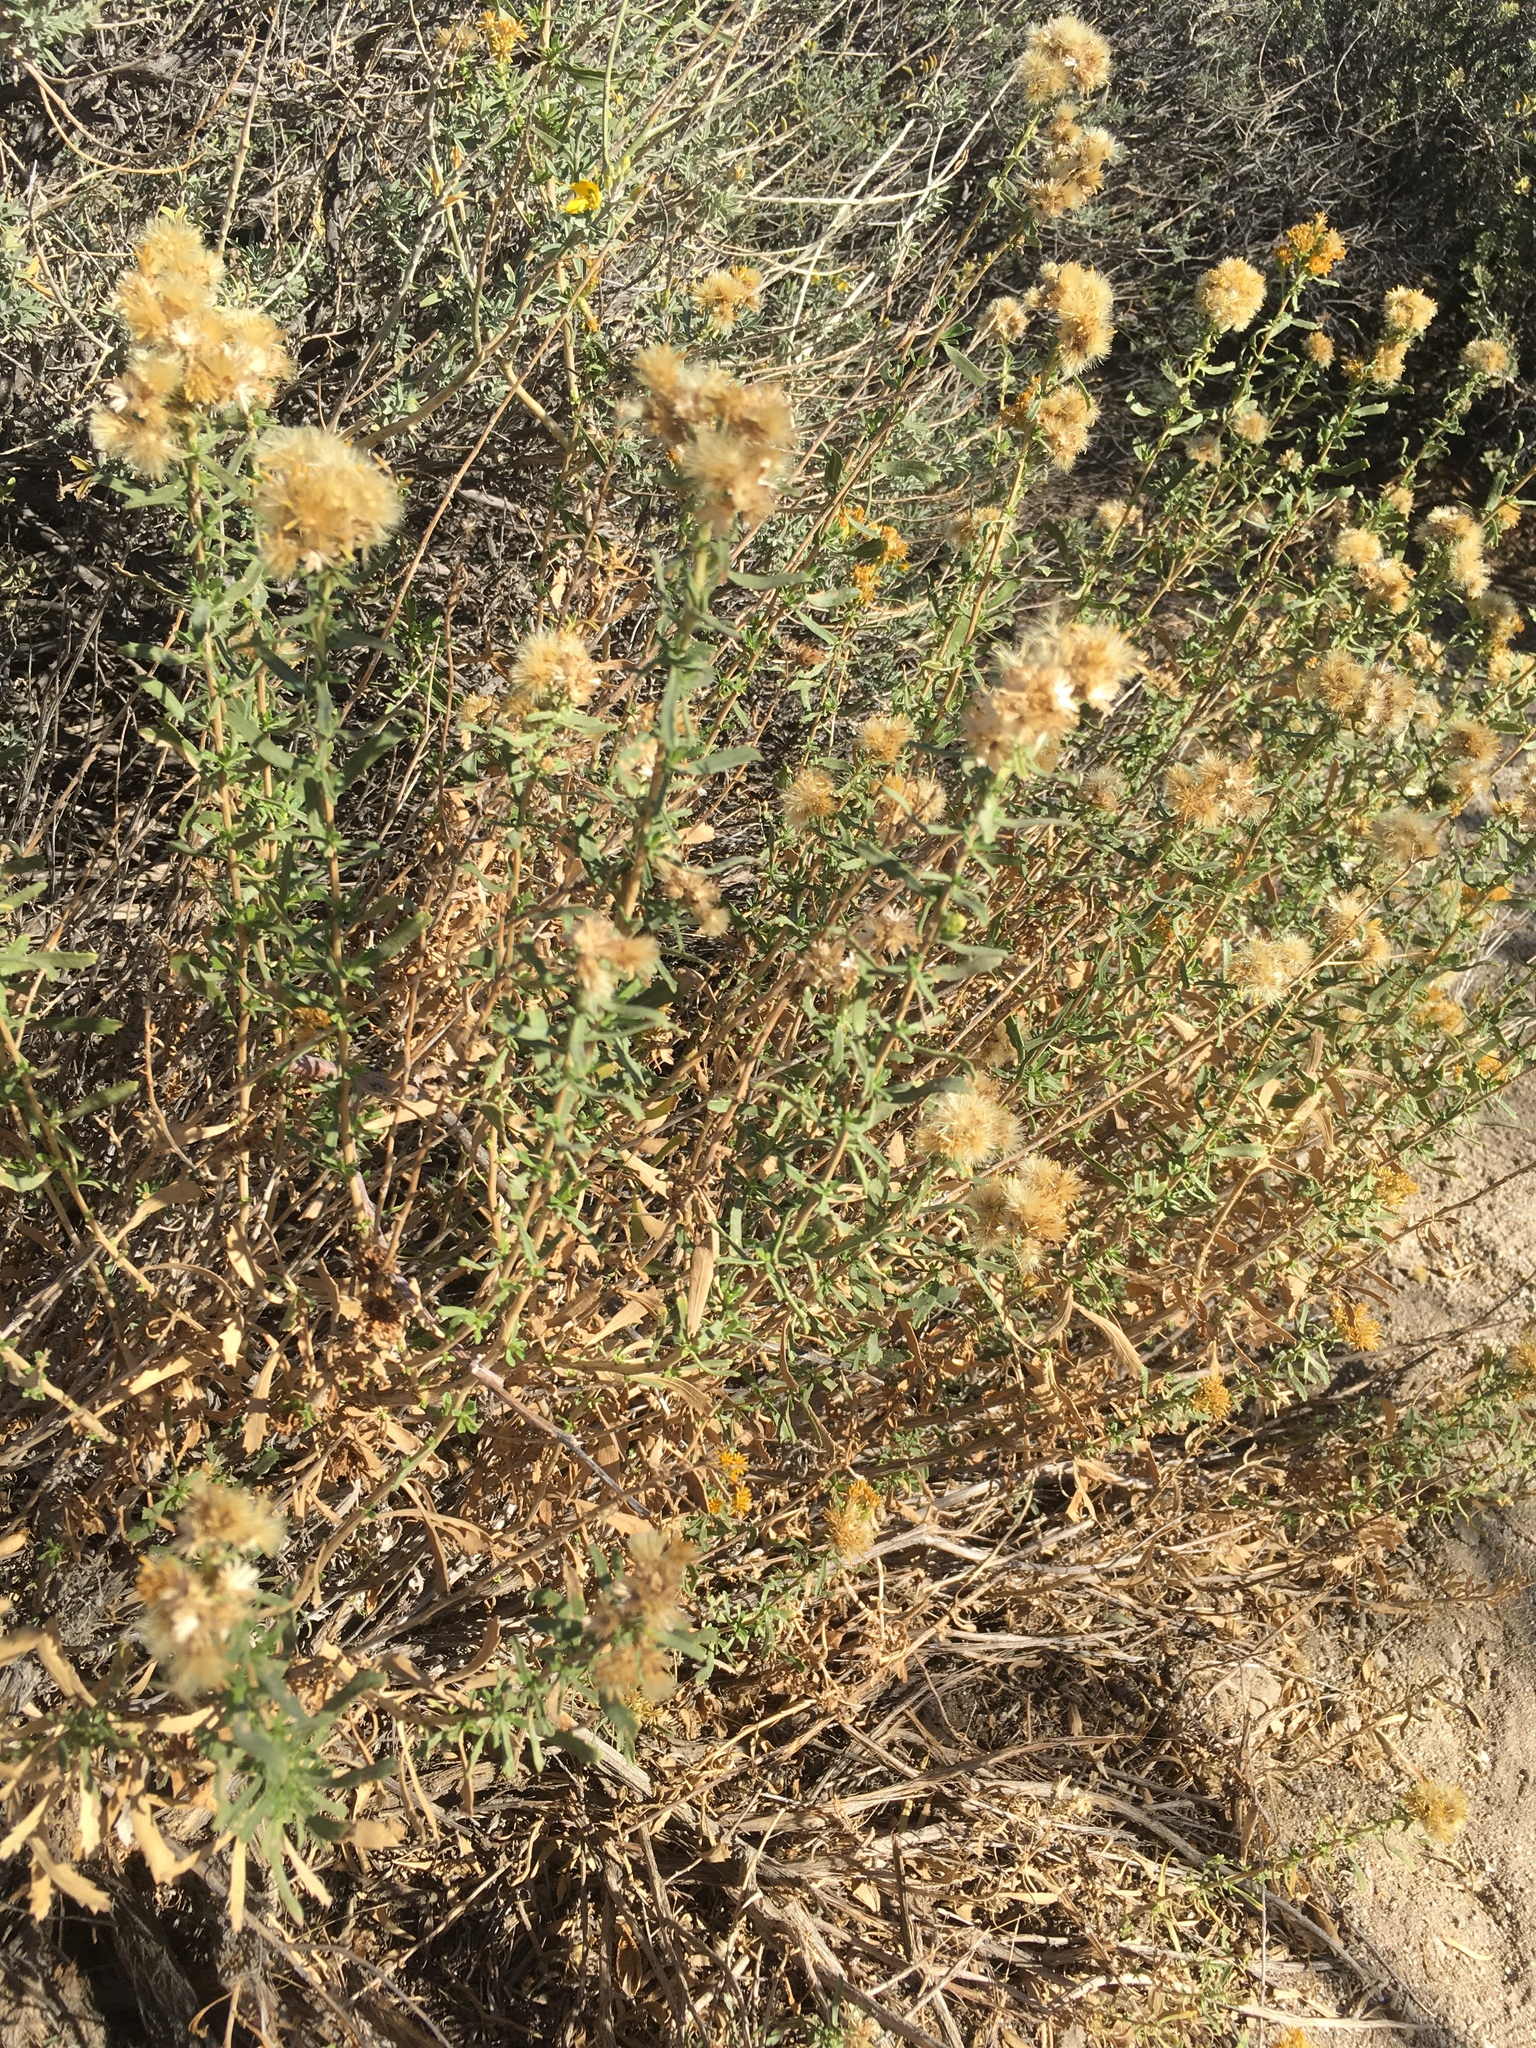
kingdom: Plantae
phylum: Tracheophyta
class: Magnoliopsida
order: Asterales
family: Asteraceae
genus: Isocoma
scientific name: Isocoma acradenia
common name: Alkali jimmyweed
